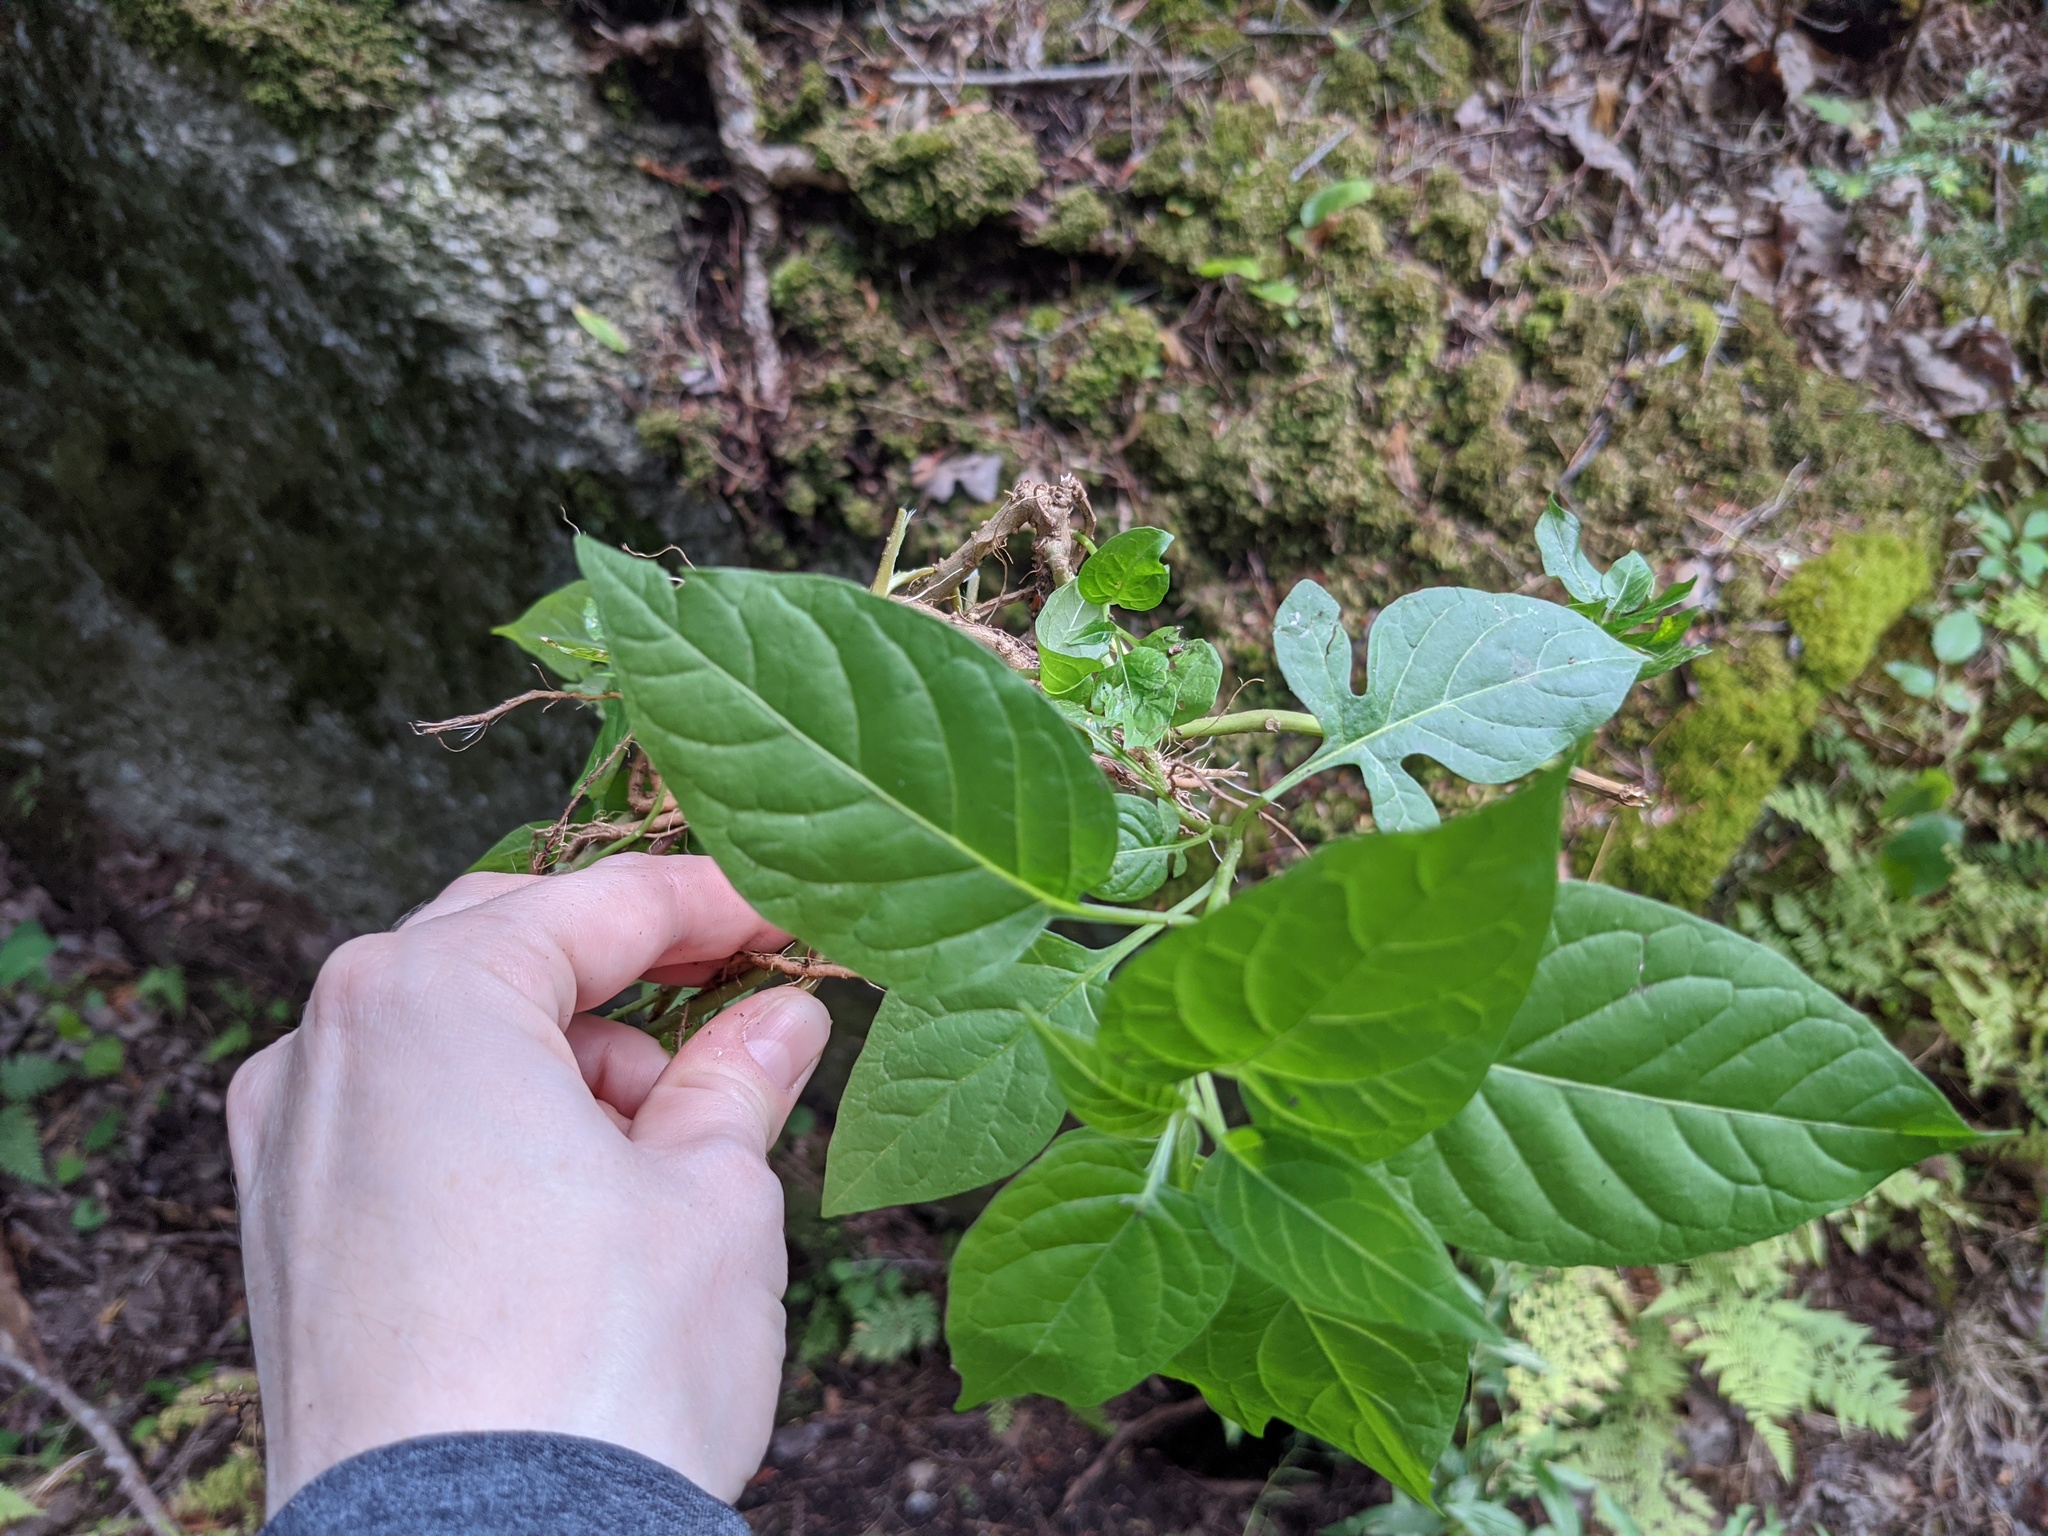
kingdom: Plantae
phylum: Tracheophyta
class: Magnoliopsida
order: Solanales
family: Solanaceae
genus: Solanum
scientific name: Solanum dulcamara
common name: Climbing nightshade
